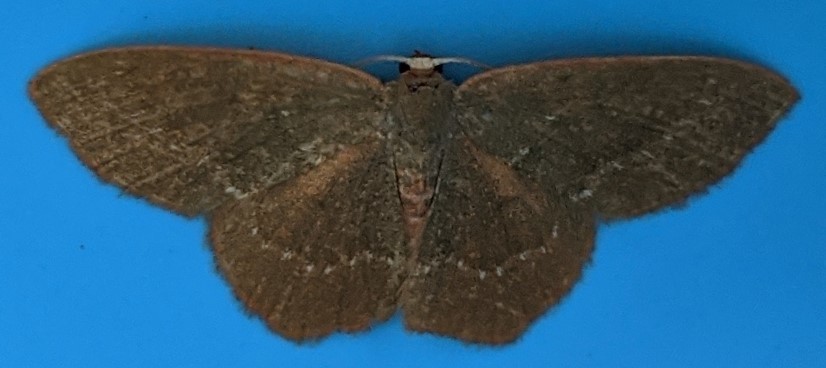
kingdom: Animalia
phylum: Arthropoda
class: Insecta
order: Lepidoptera
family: Geometridae
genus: Thalera
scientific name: Thalera pistasciaria
